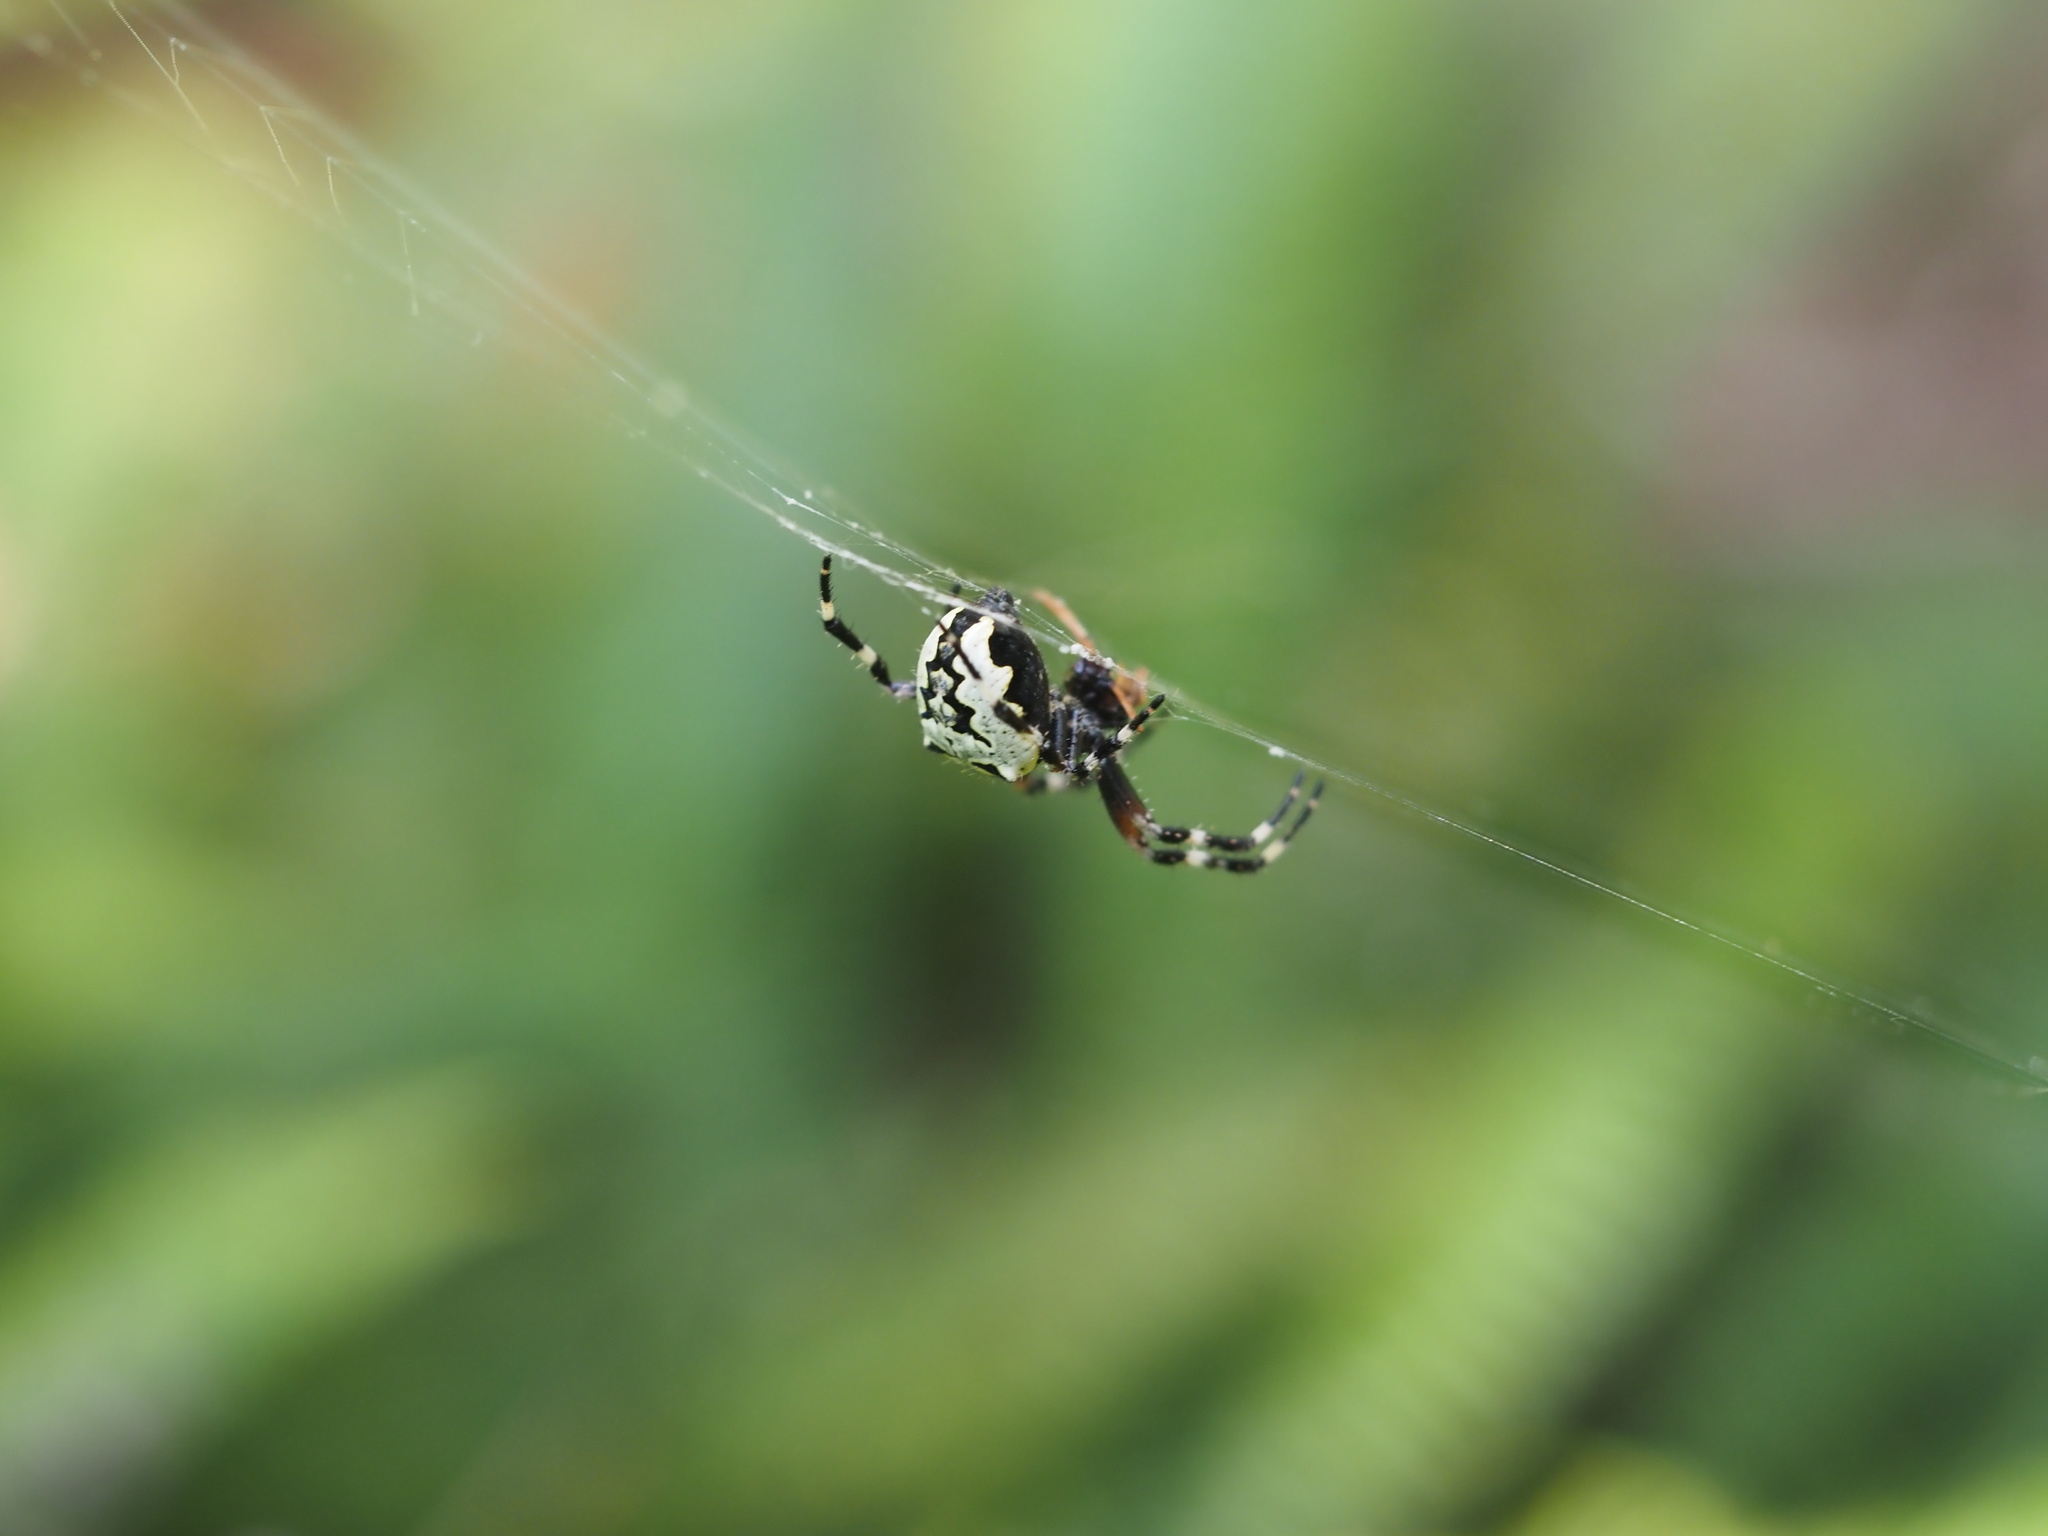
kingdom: Animalia
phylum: Arthropoda
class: Arachnida
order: Araneae
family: Araneidae
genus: Araneus
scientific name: Araneus nordmanni
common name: Nordmann's orbweaver
